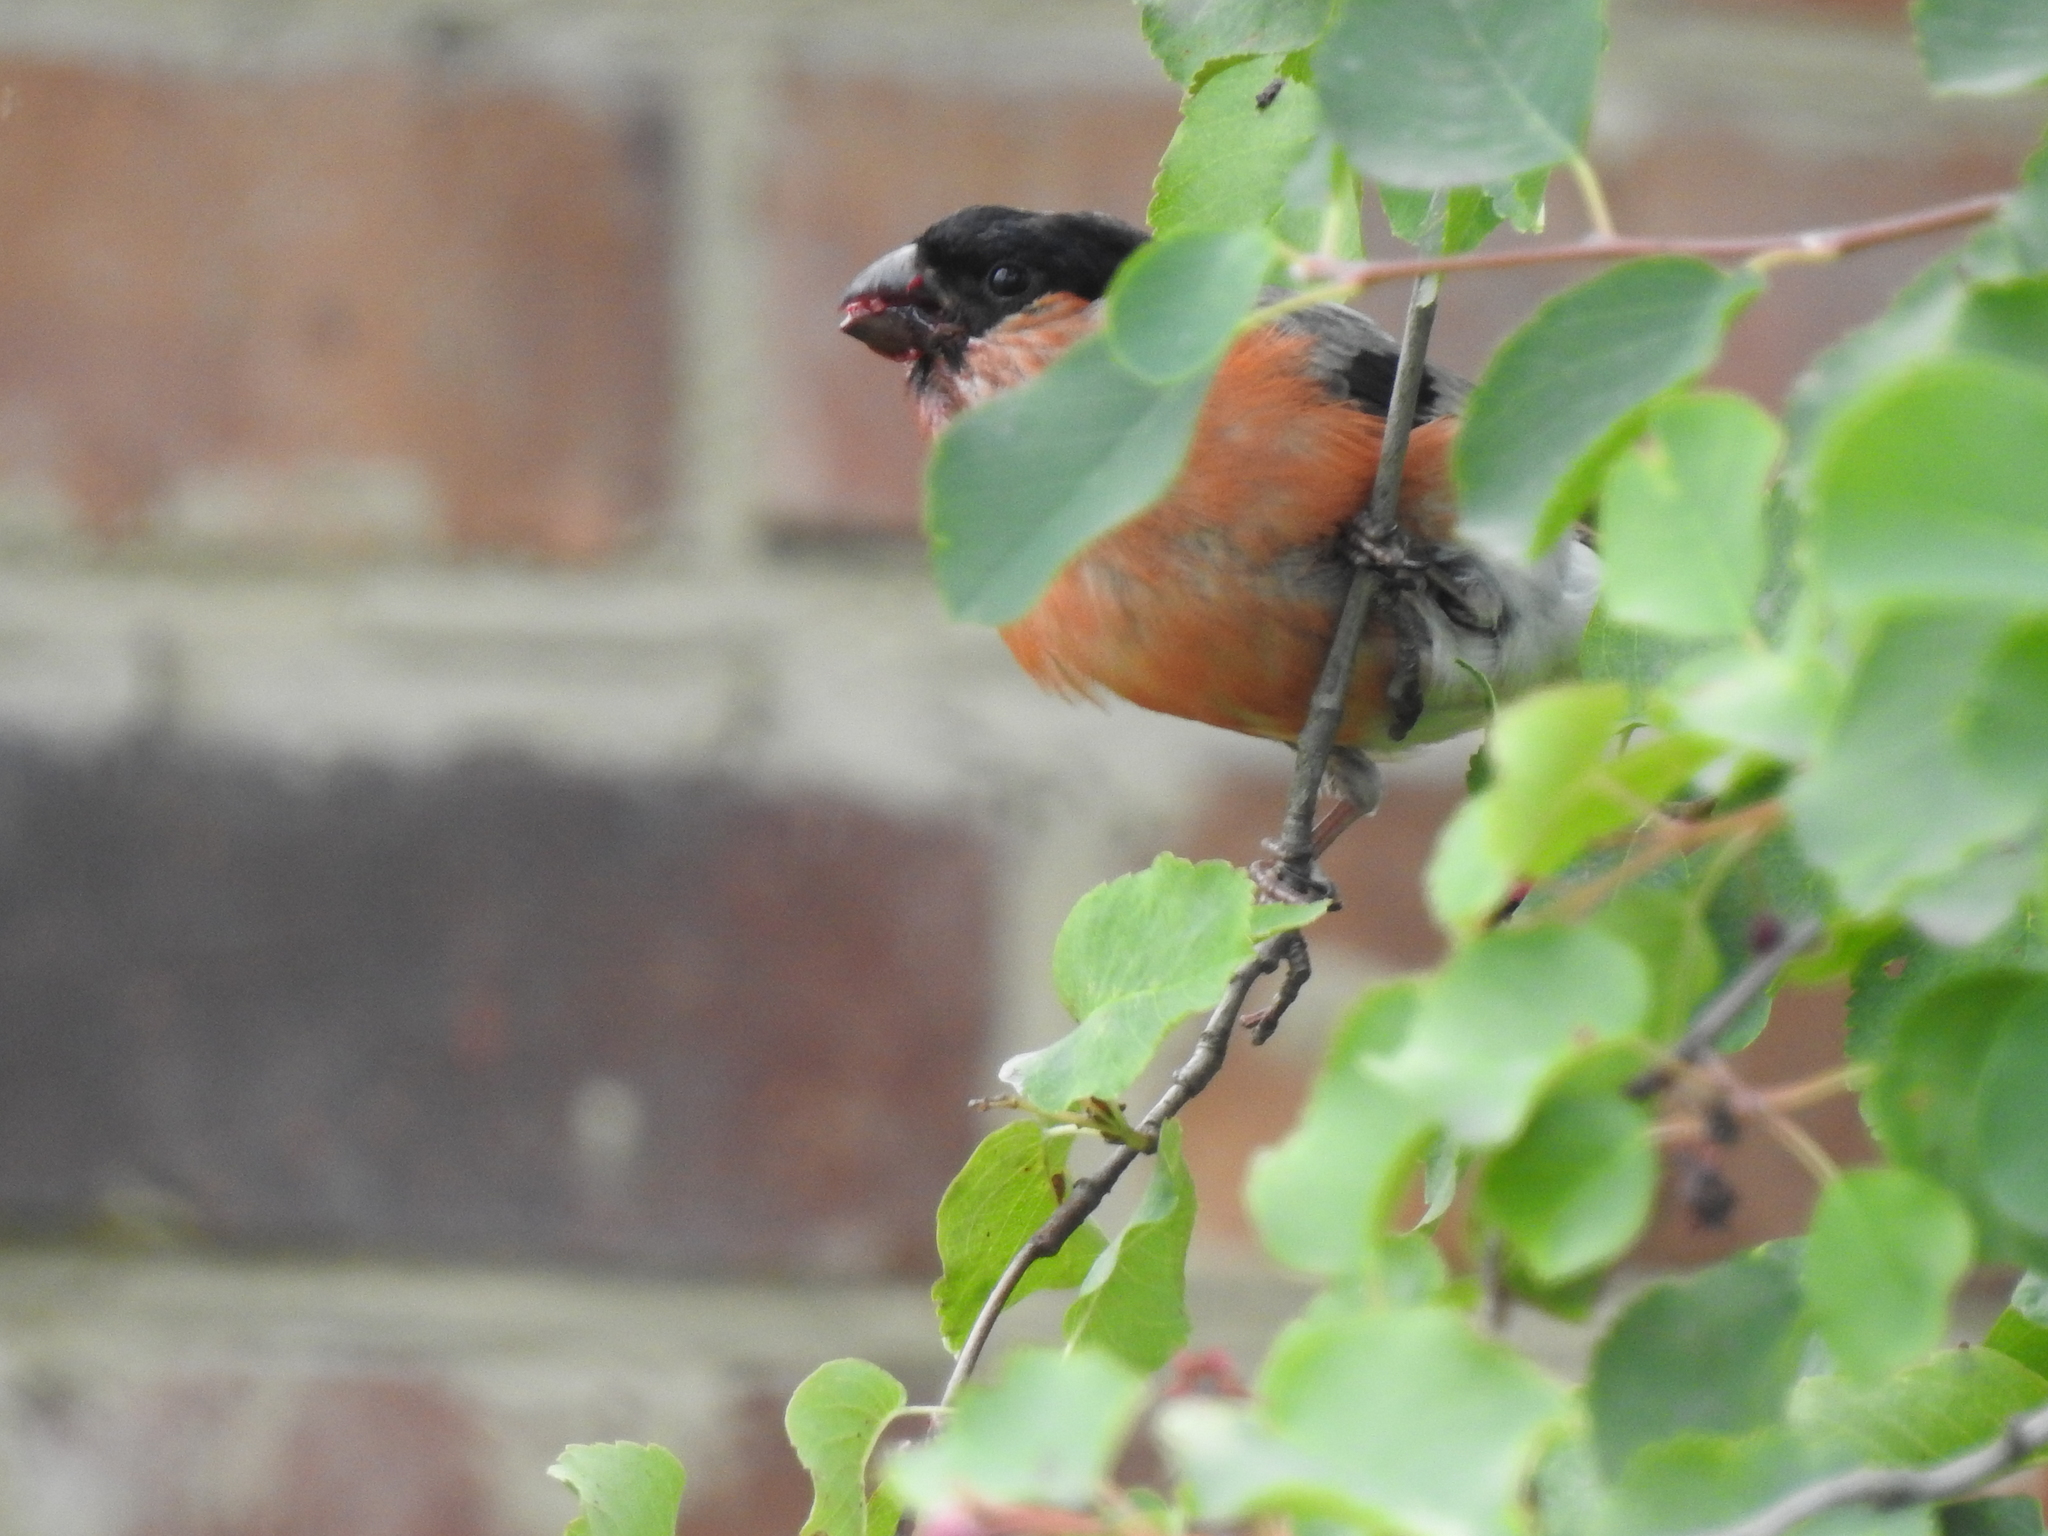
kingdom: Animalia
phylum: Chordata
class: Aves
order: Passeriformes
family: Fringillidae
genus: Pyrrhula
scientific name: Pyrrhula pyrrhula
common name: Eurasian bullfinch
